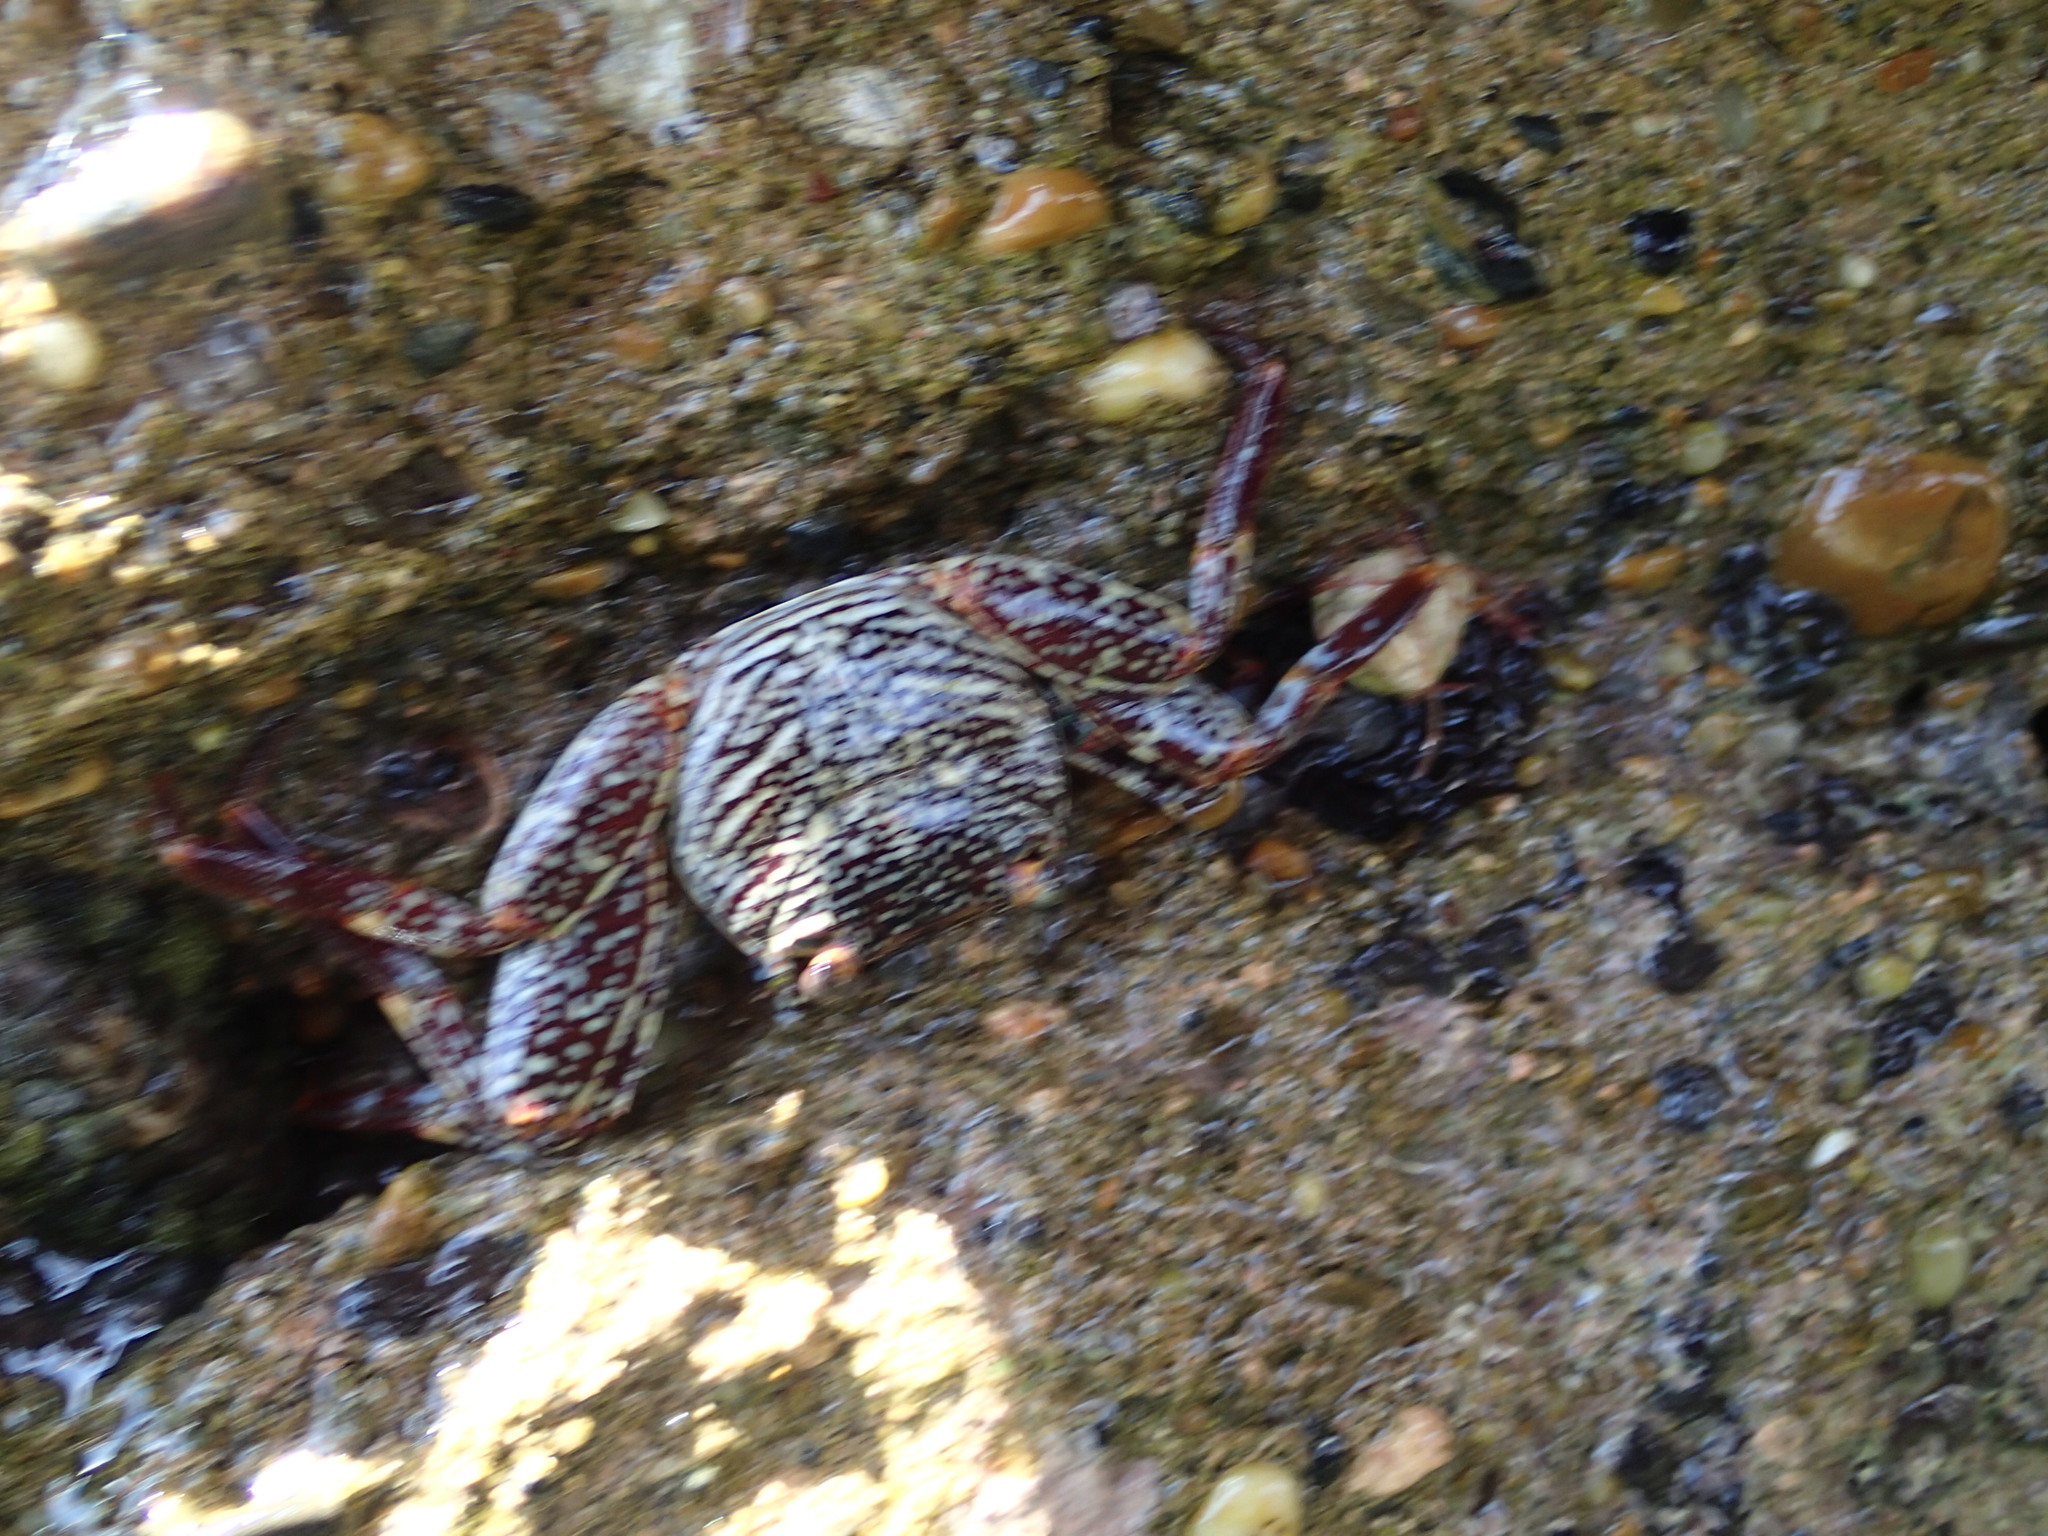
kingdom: Animalia
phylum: Arthropoda
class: Malacostraca
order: Decapoda
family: Grapsidae
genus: Grapsus
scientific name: Grapsus grapsus
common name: Sally lightfoot
